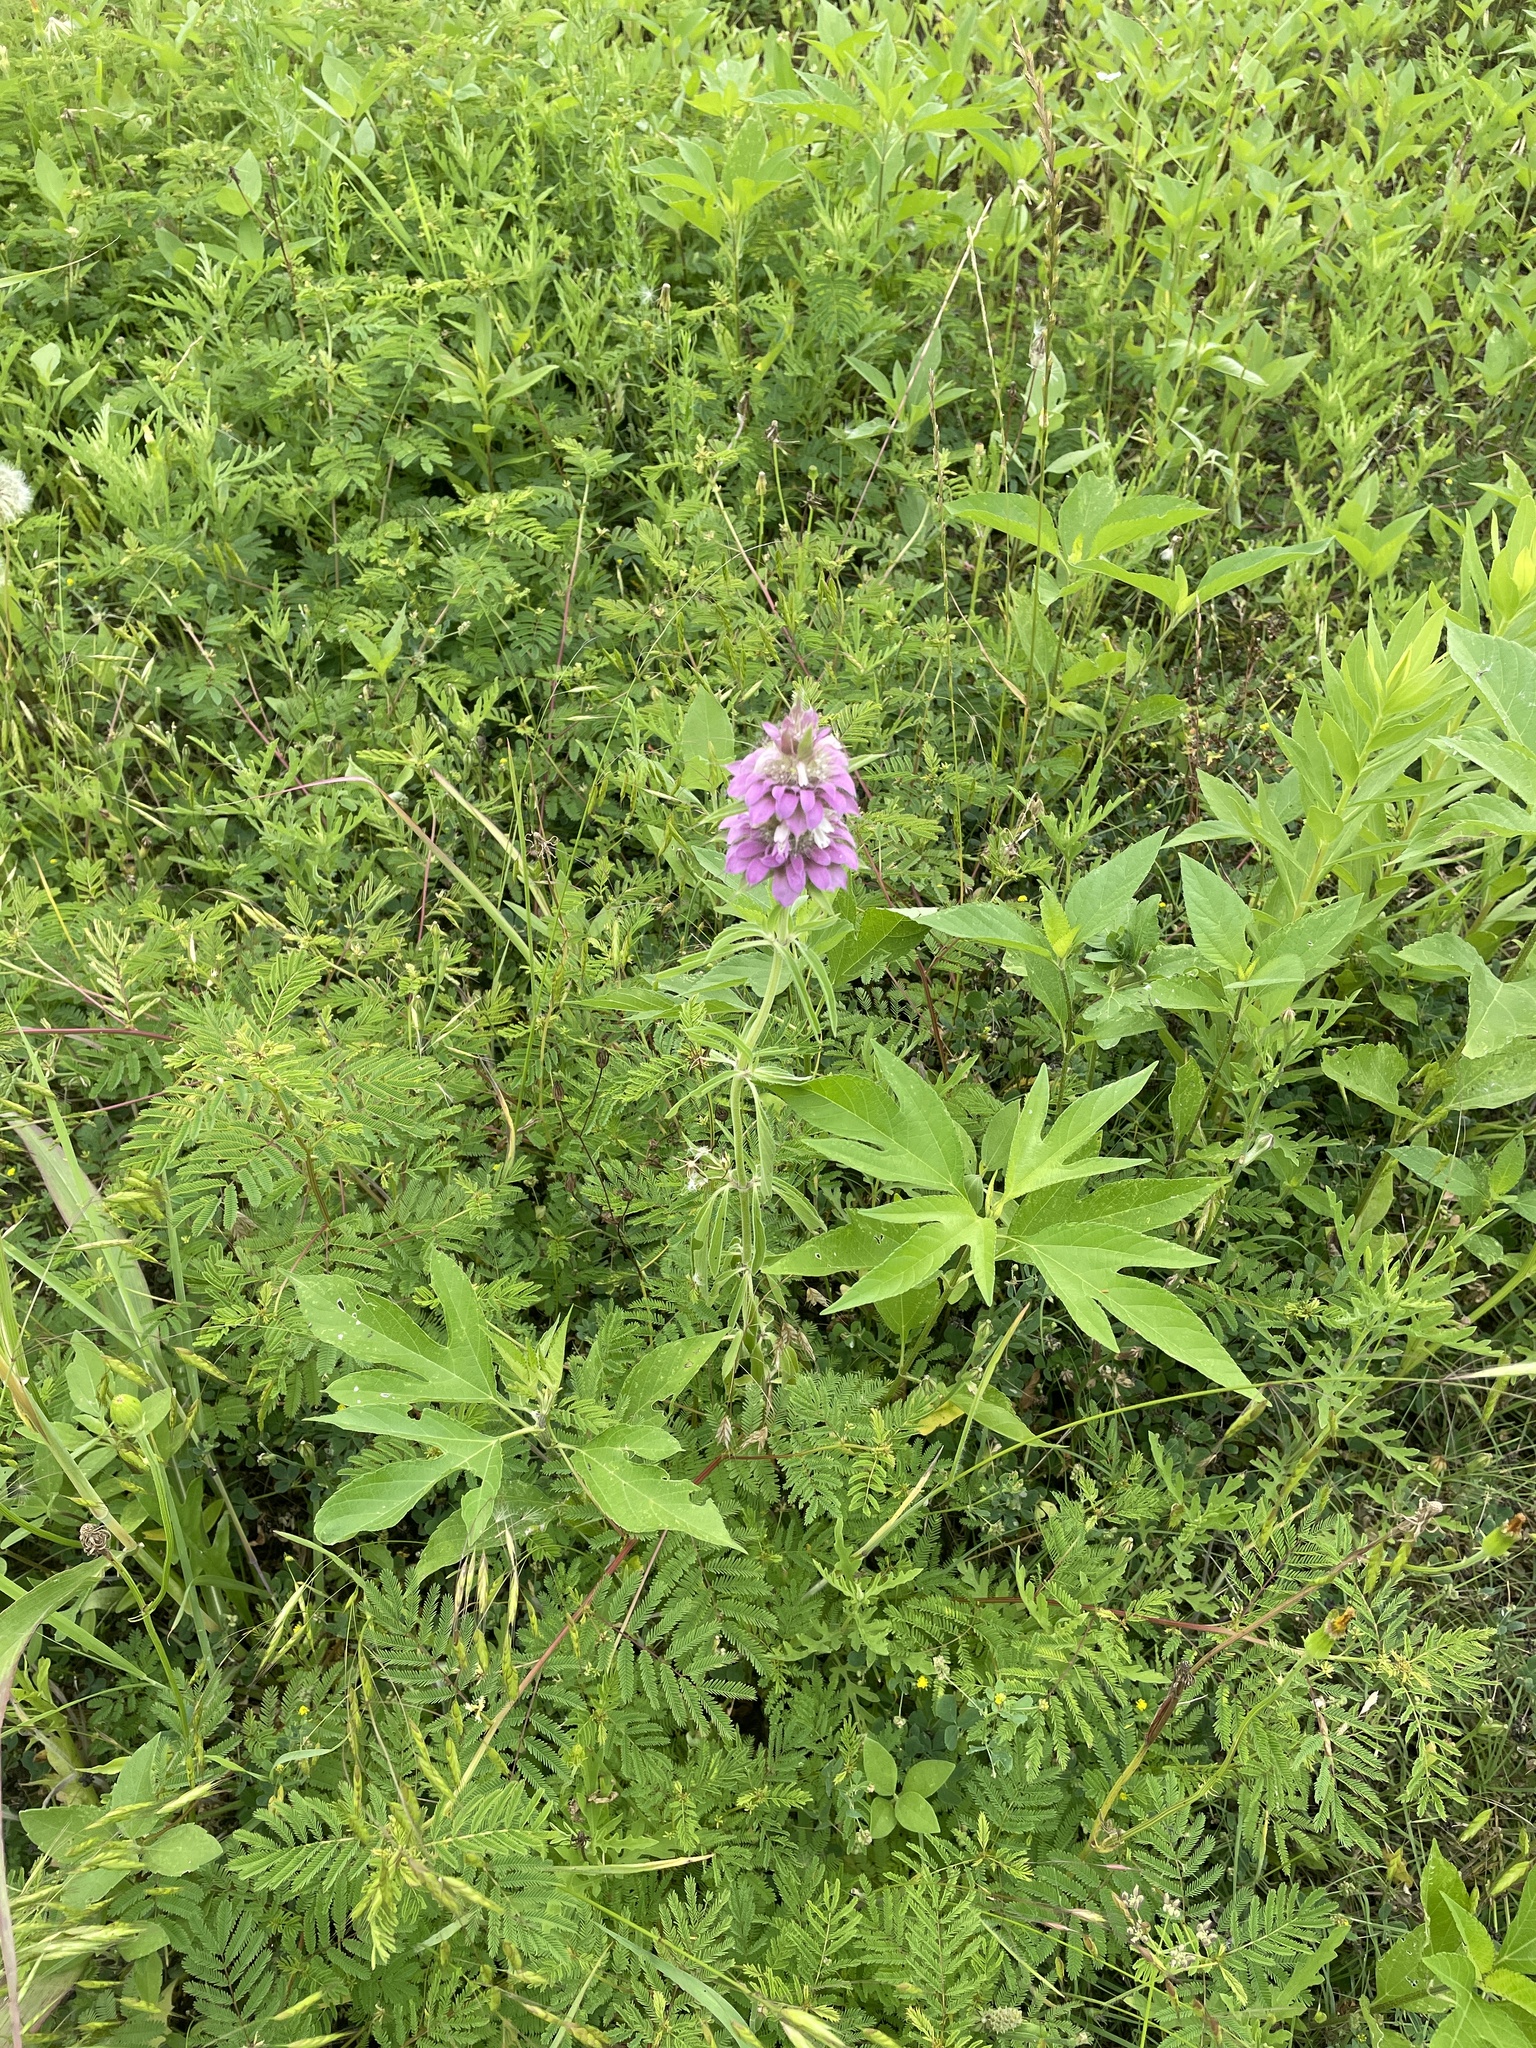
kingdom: Plantae
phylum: Tracheophyta
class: Magnoliopsida
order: Lamiales
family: Lamiaceae
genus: Monarda
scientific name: Monarda citriodora
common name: Lemon beebalm
